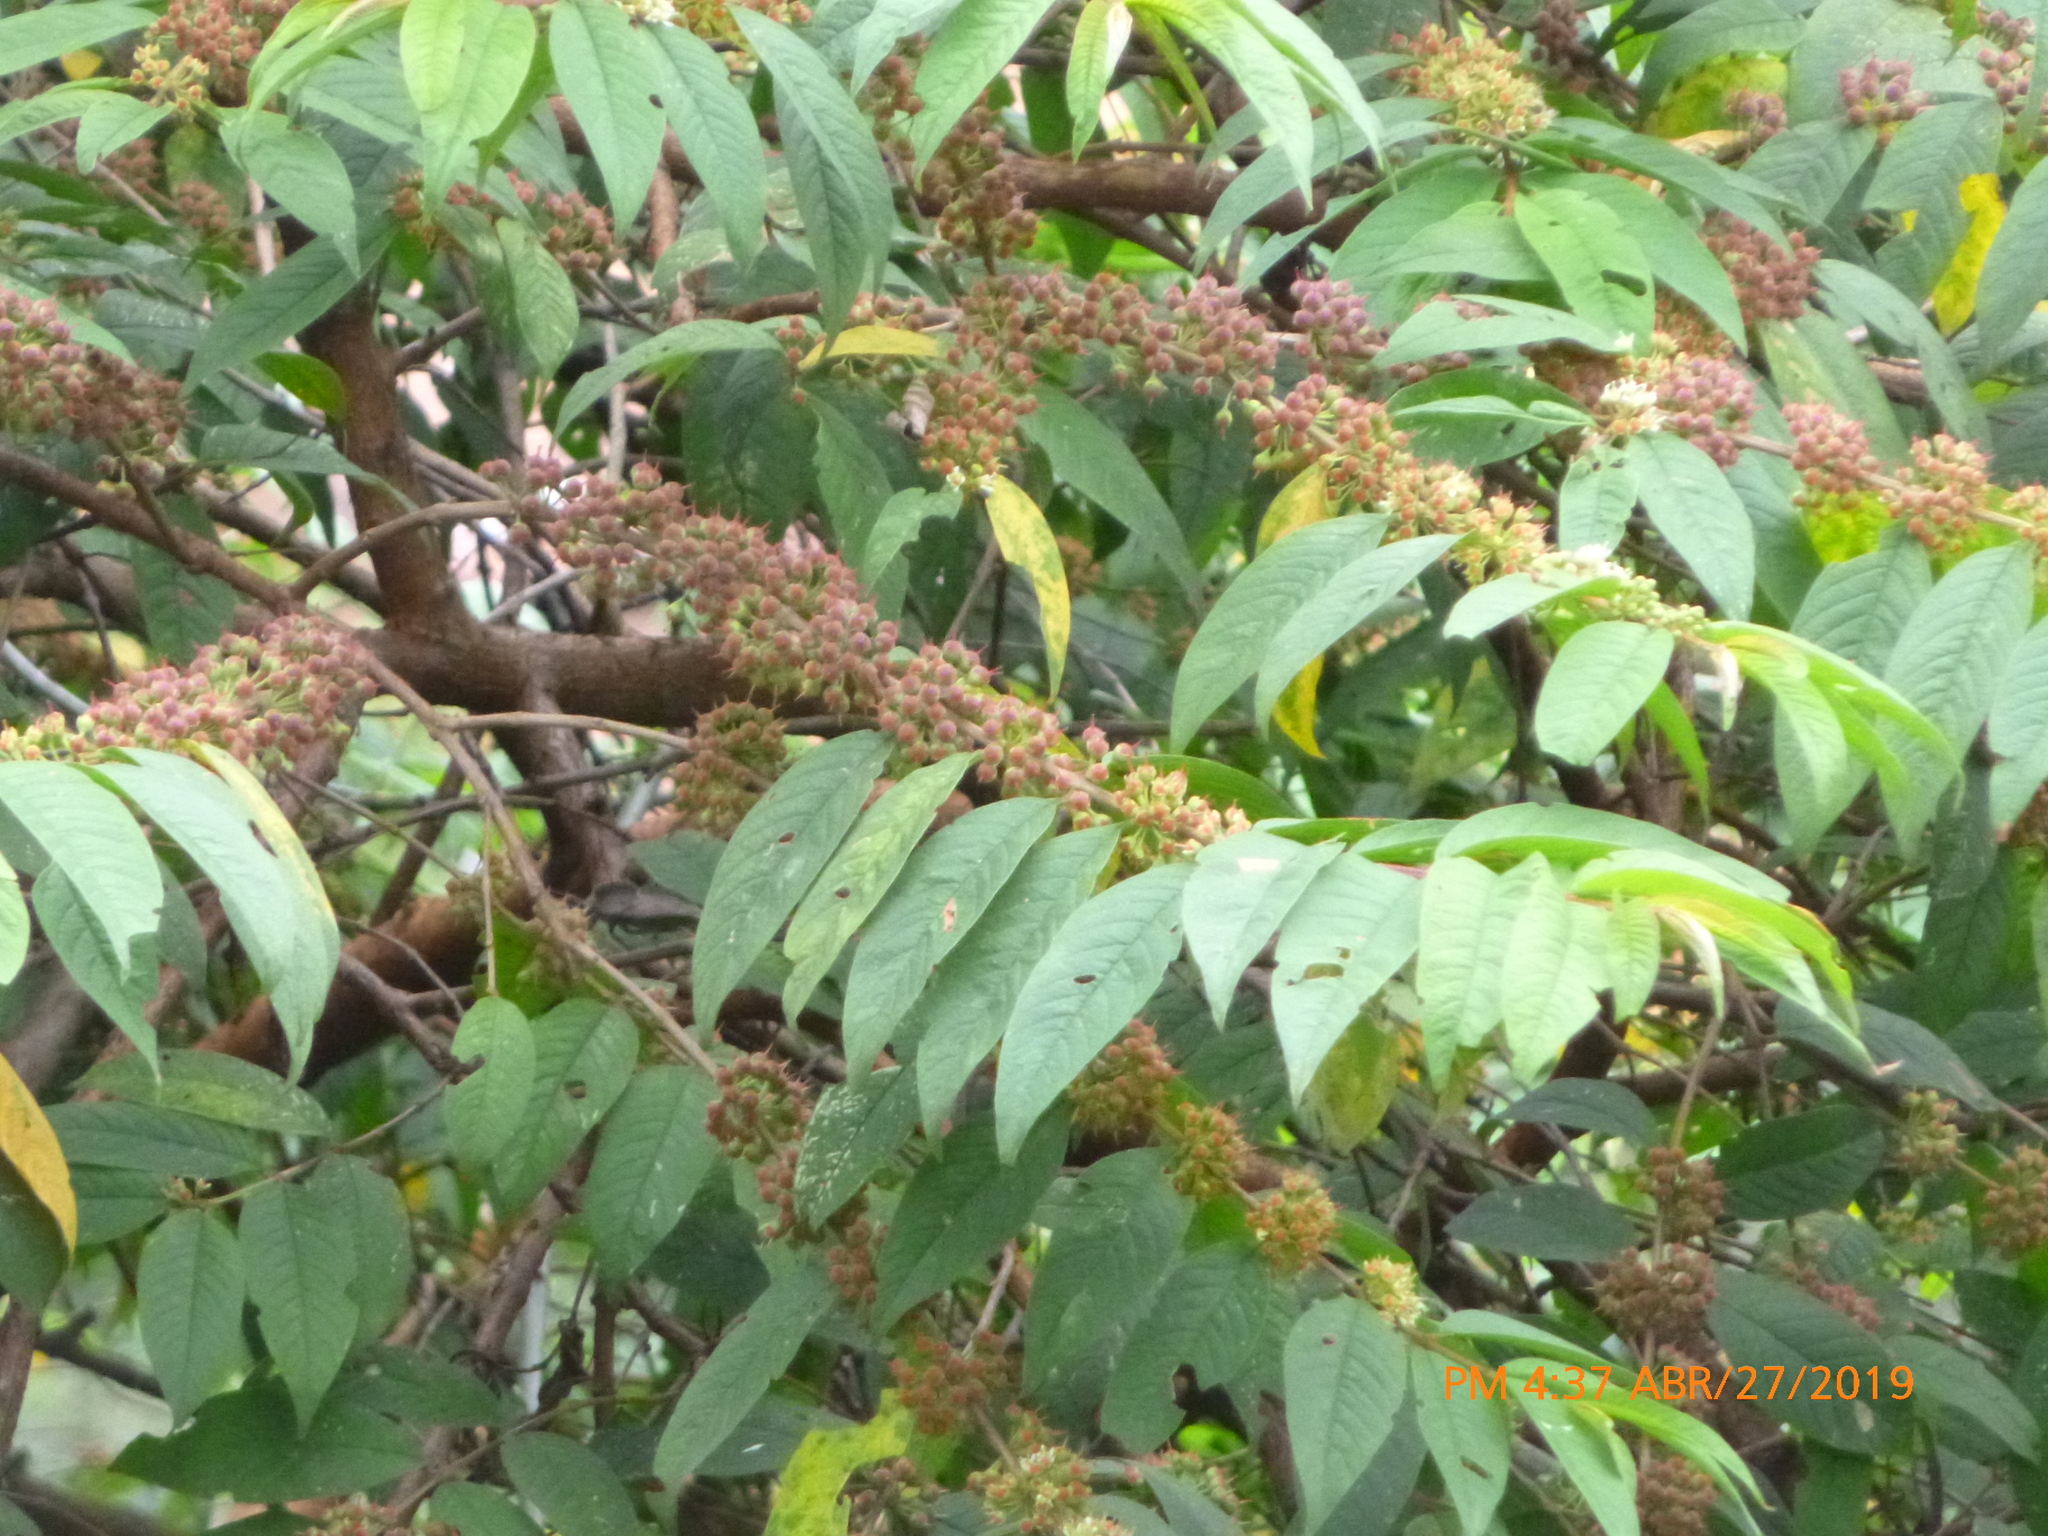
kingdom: Plantae
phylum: Tracheophyta
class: Magnoliopsida
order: Myrtales
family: Lythraceae
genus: Adenaria
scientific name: Adenaria floribunda
